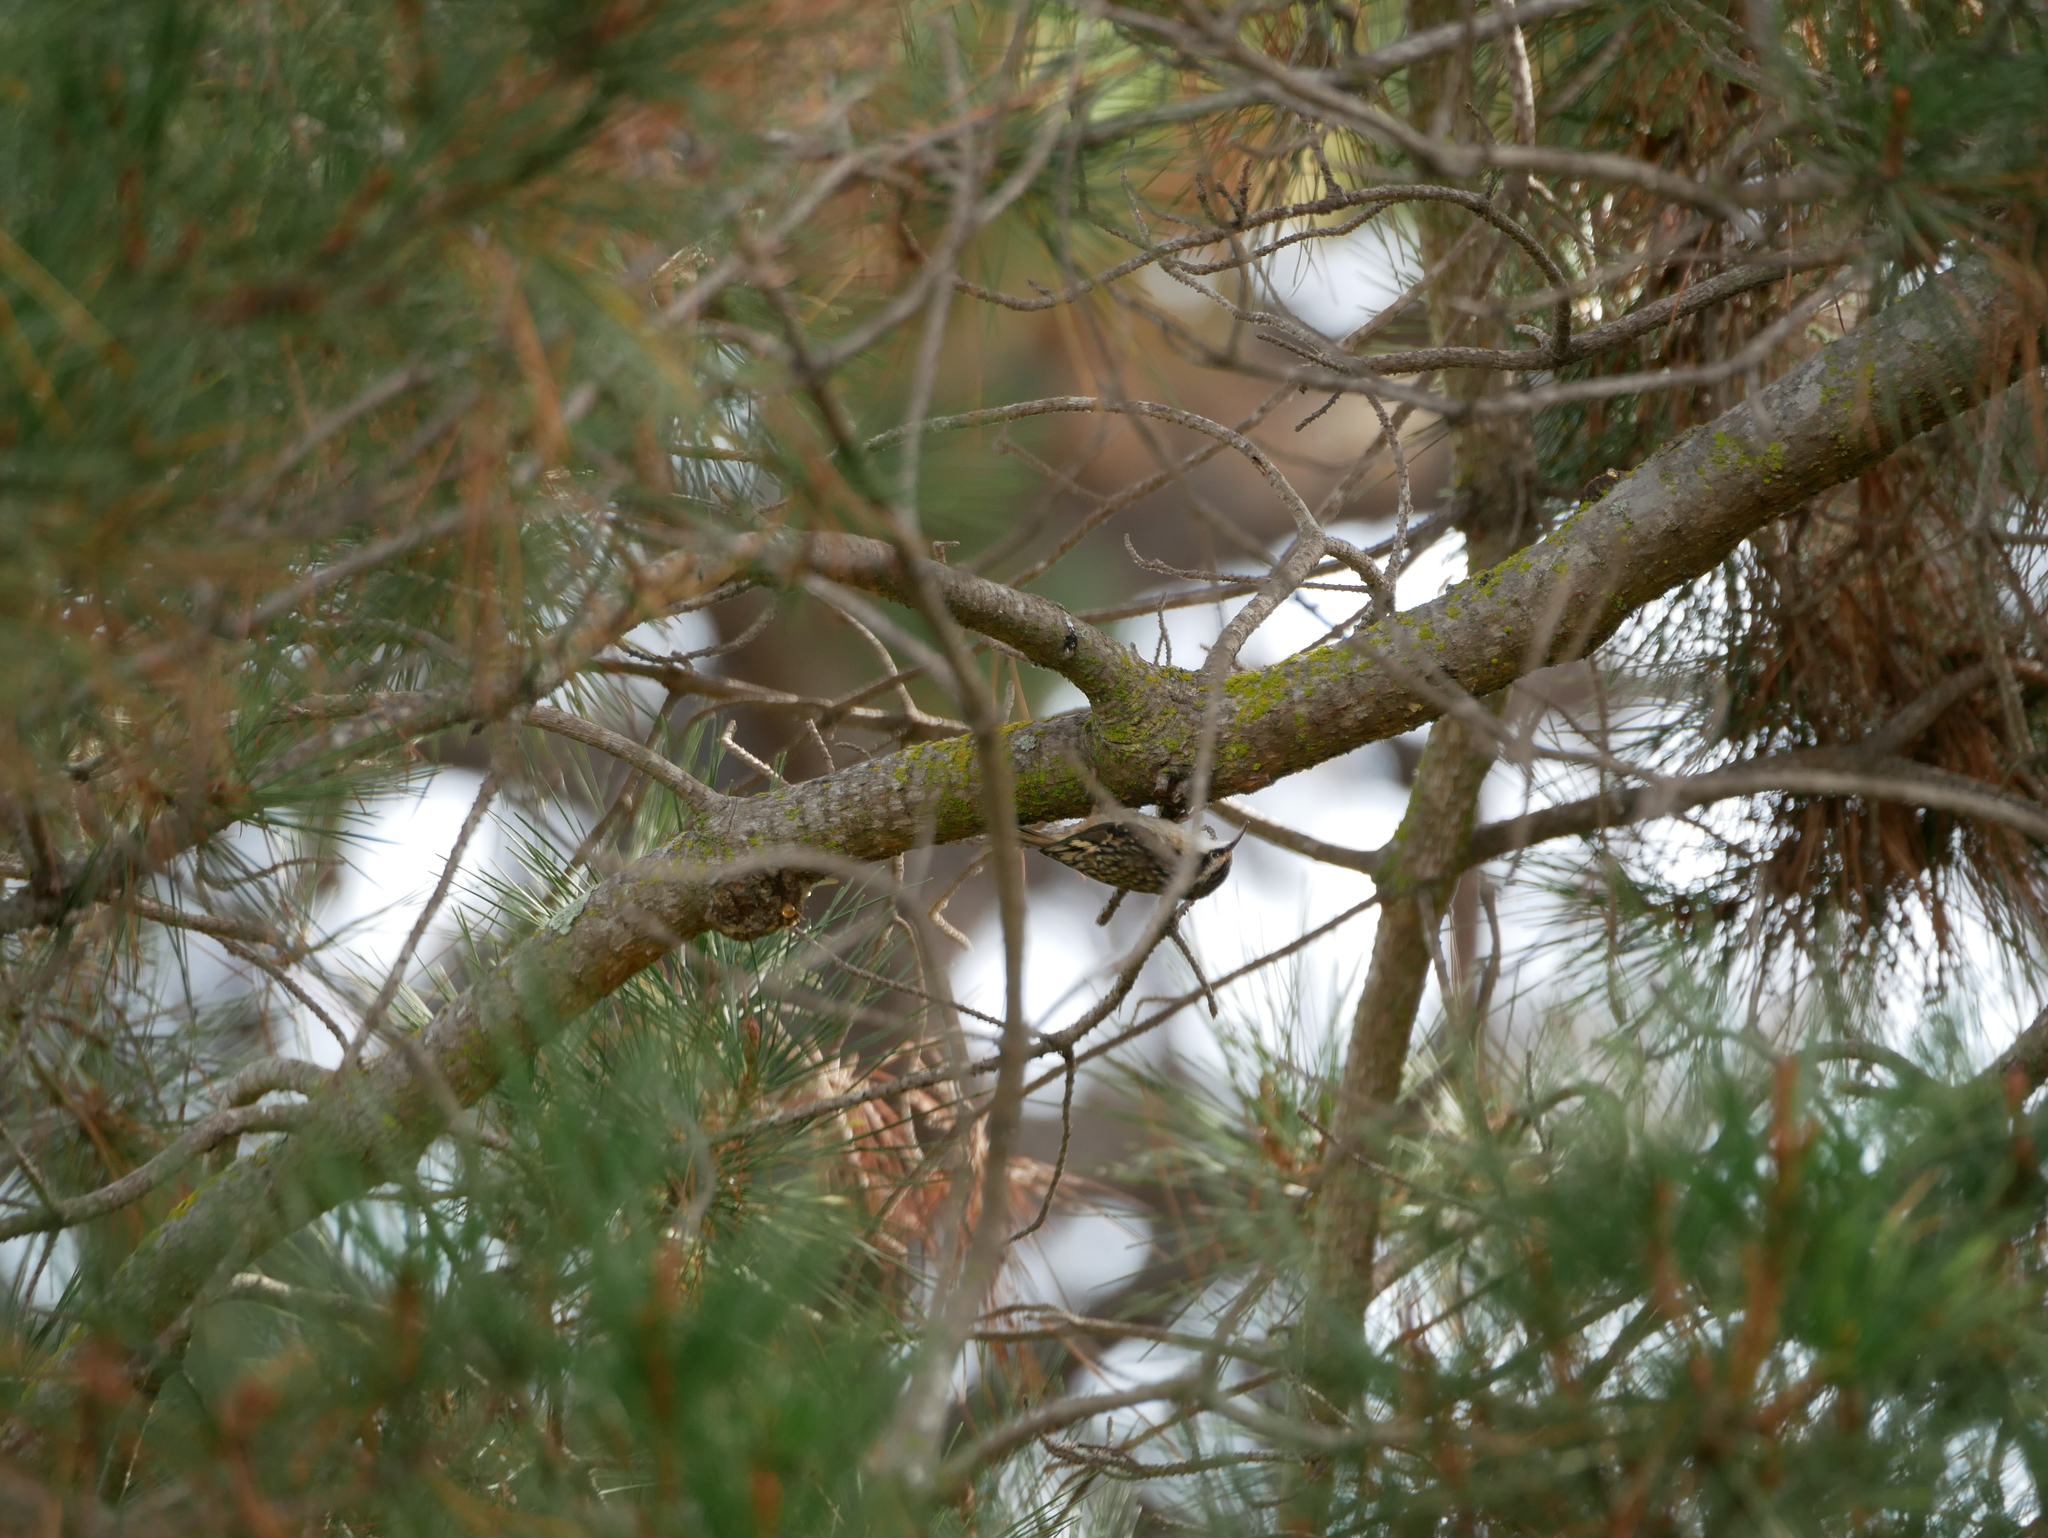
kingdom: Animalia
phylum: Chordata
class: Aves
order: Passeriformes
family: Certhiidae
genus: Certhia
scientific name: Certhia americana
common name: Brown creeper
